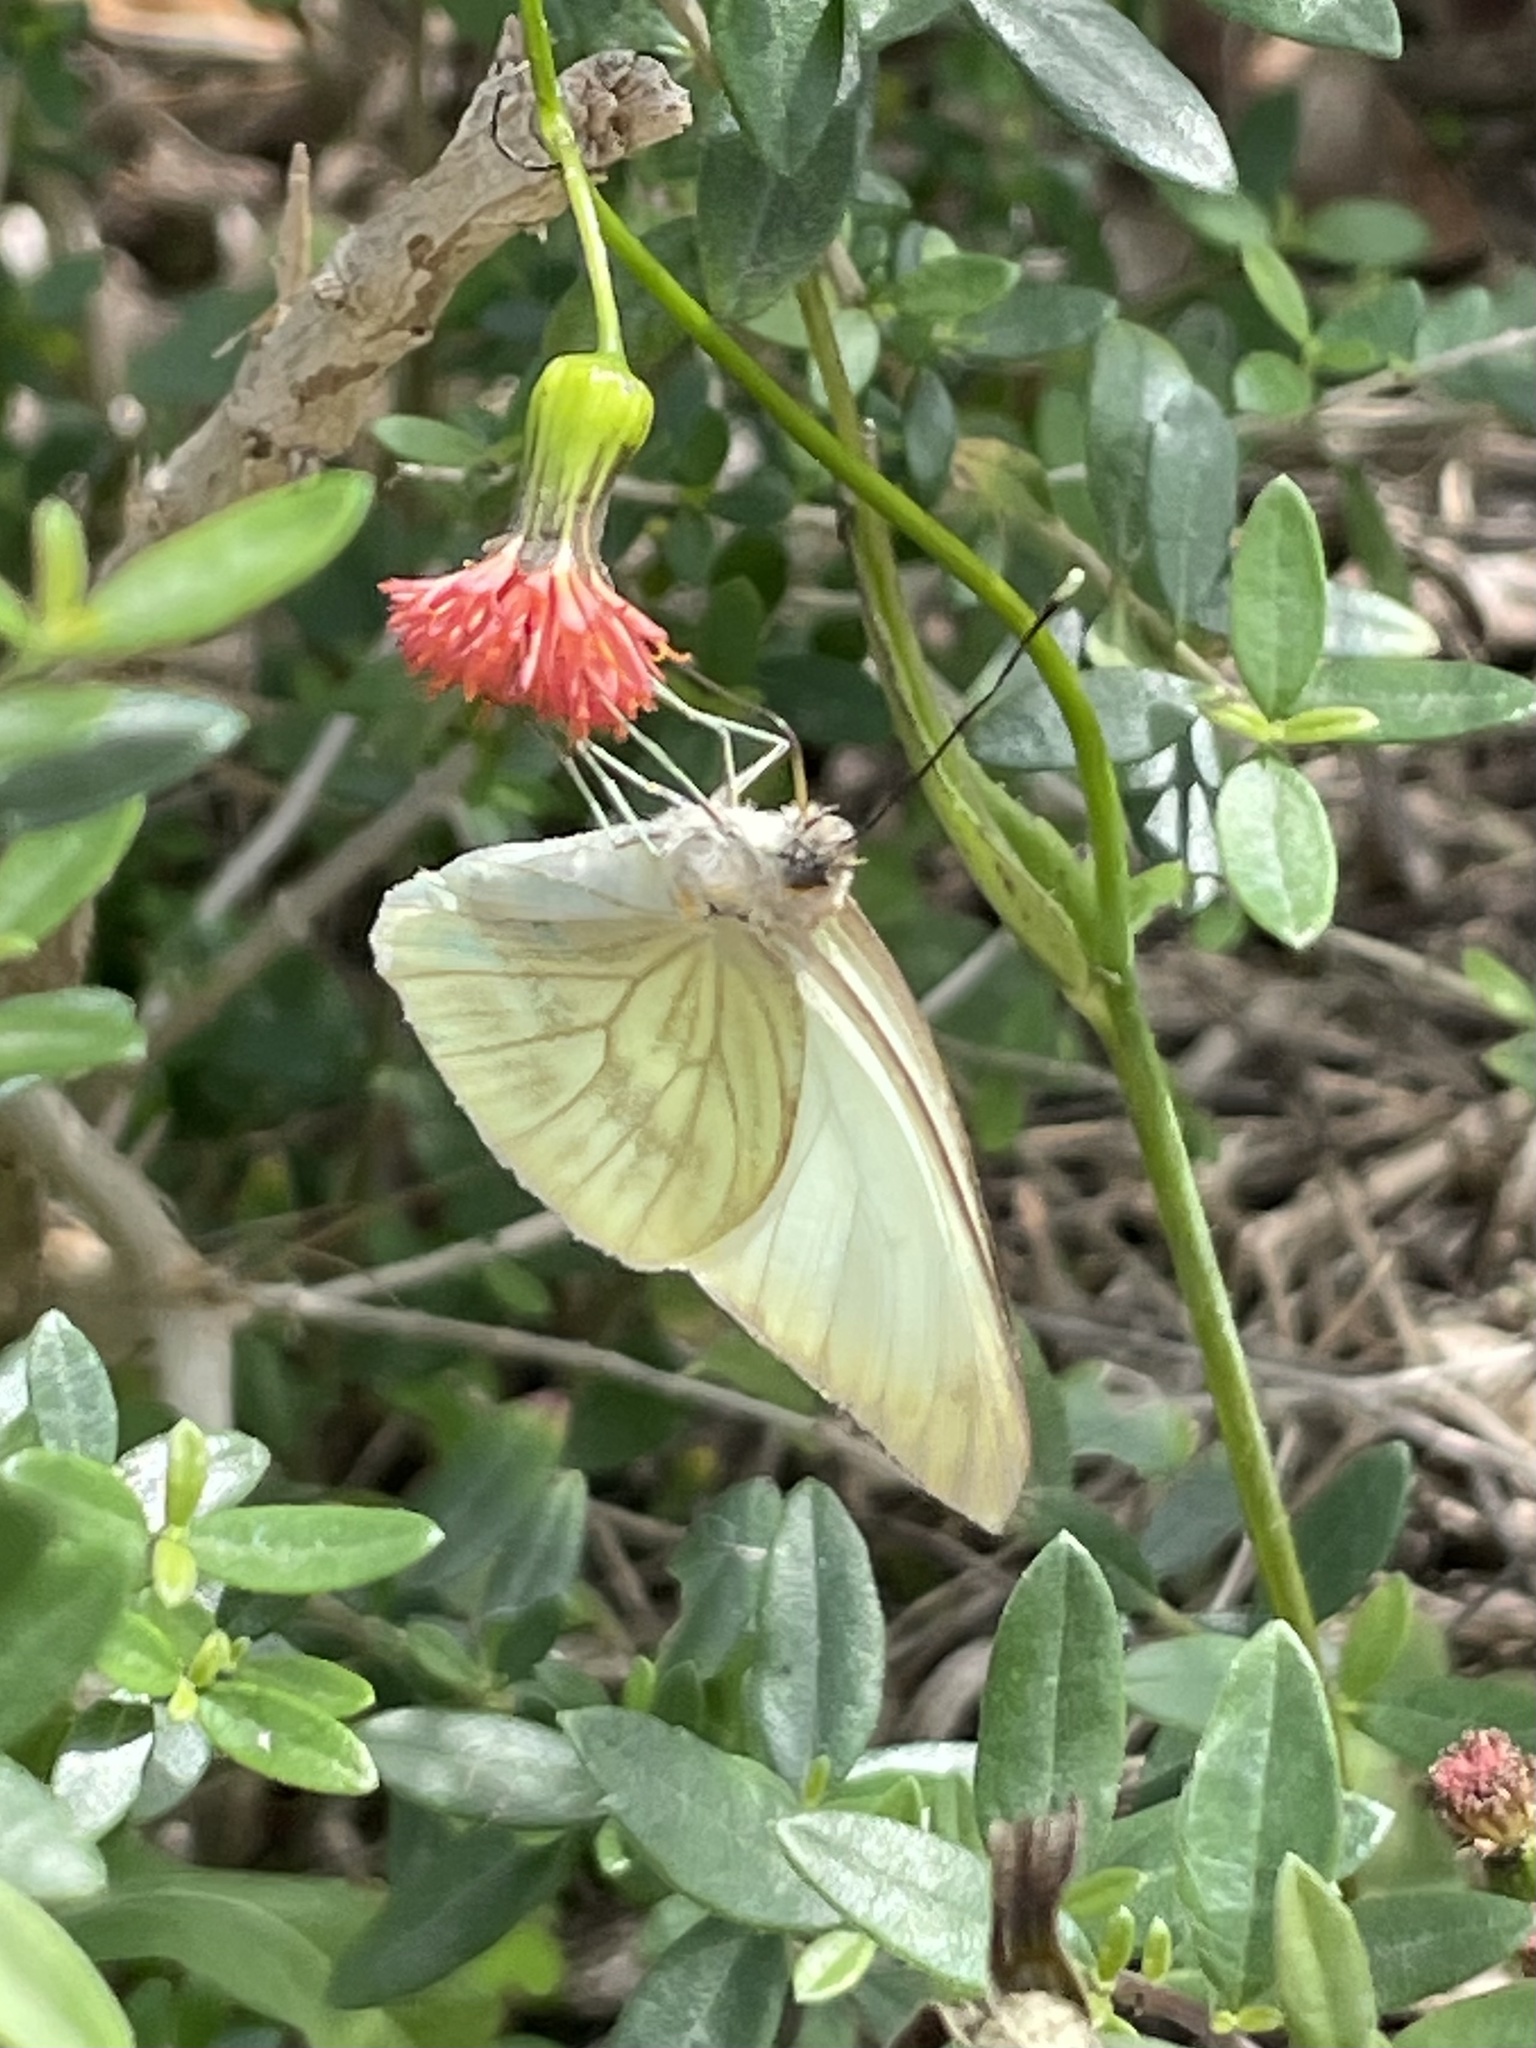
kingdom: Animalia
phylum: Arthropoda
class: Insecta
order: Lepidoptera
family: Pieridae
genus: Ascia
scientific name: Ascia monuste
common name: Great southern white
